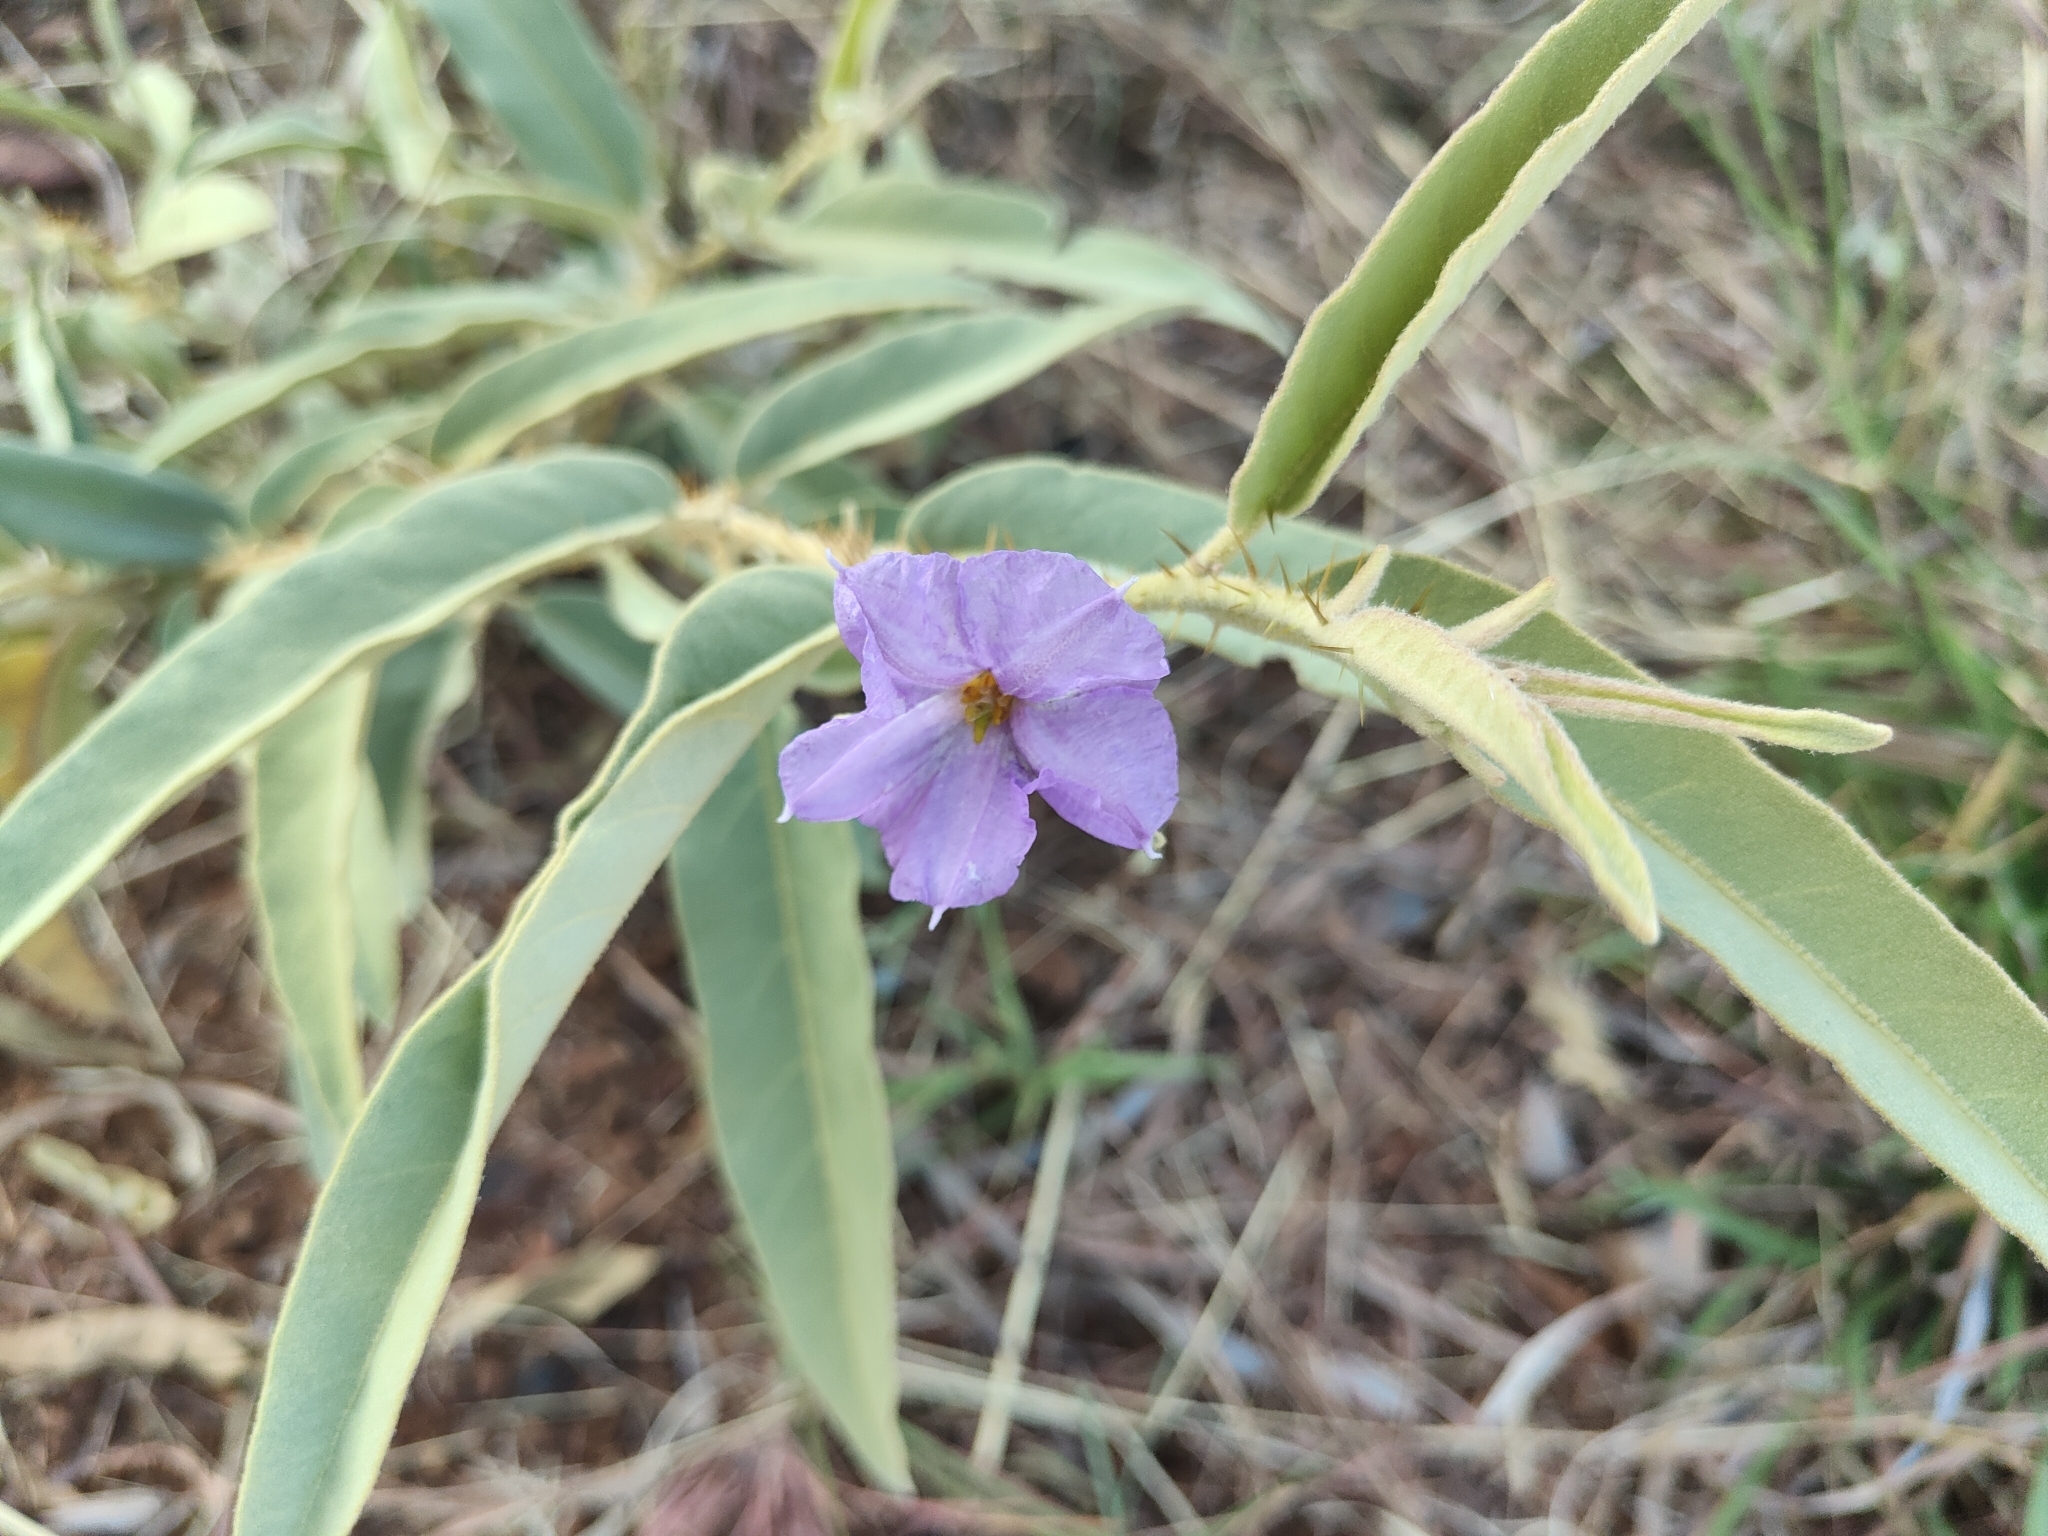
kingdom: Plantae
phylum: Tracheophyta
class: Magnoliopsida
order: Solanales
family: Solanaceae
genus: Solanum
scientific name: Solanum dioicum
